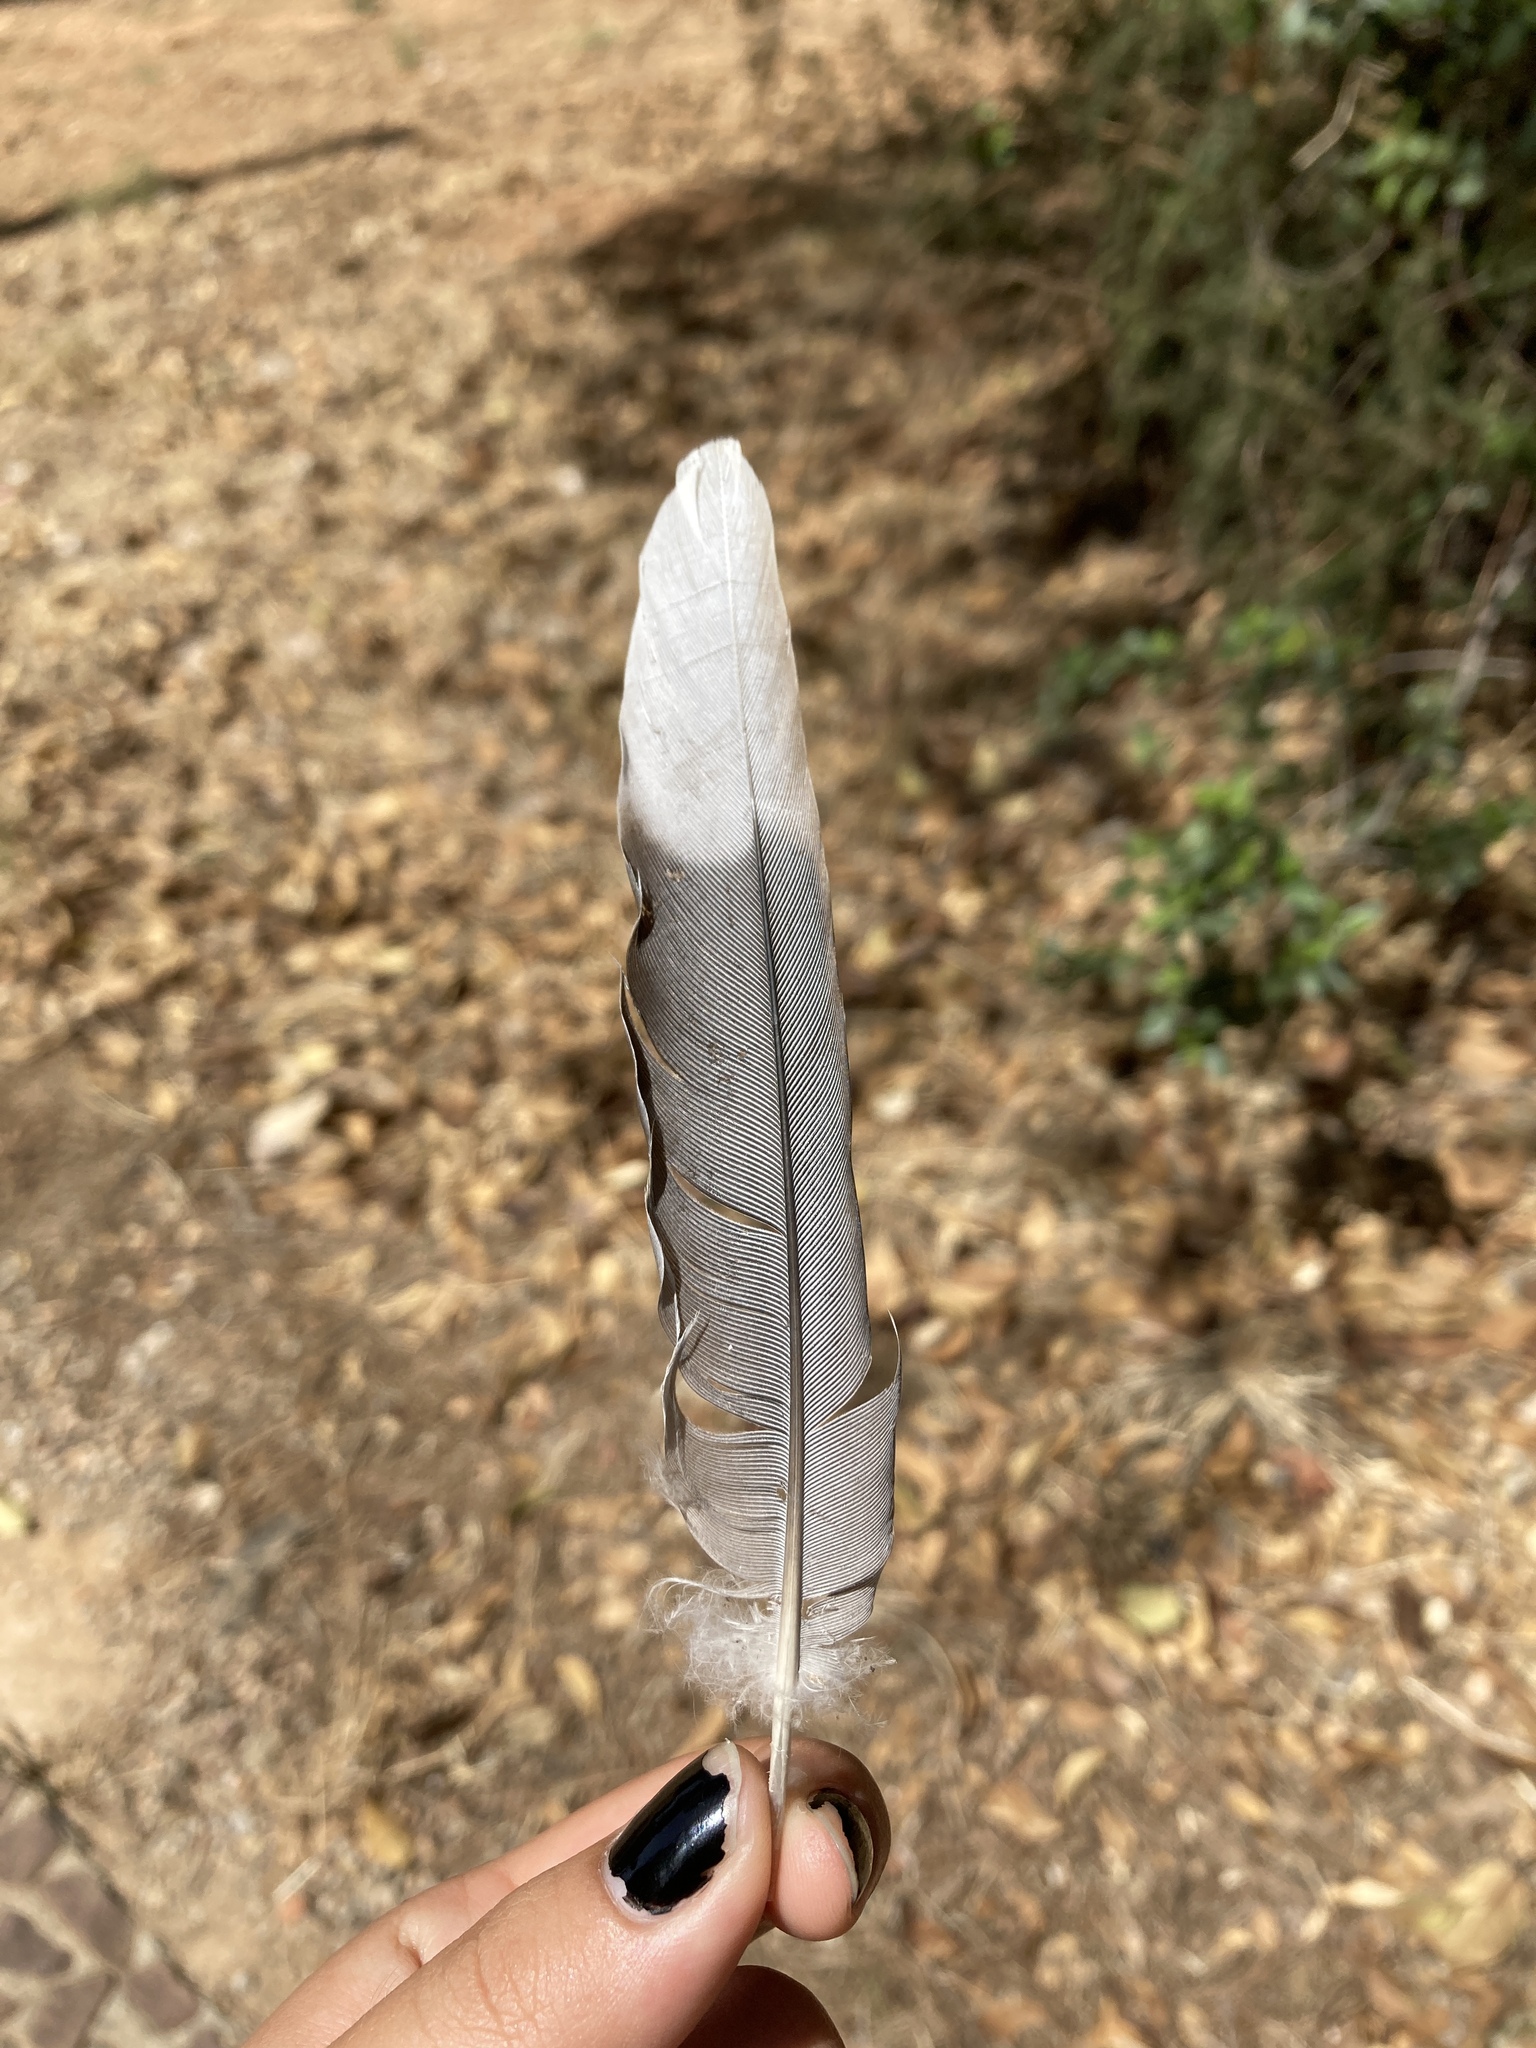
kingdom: Animalia
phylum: Chordata
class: Aves
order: Columbiformes
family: Columbidae
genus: Streptopelia
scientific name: Streptopelia decaocto
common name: Eurasian collared dove
